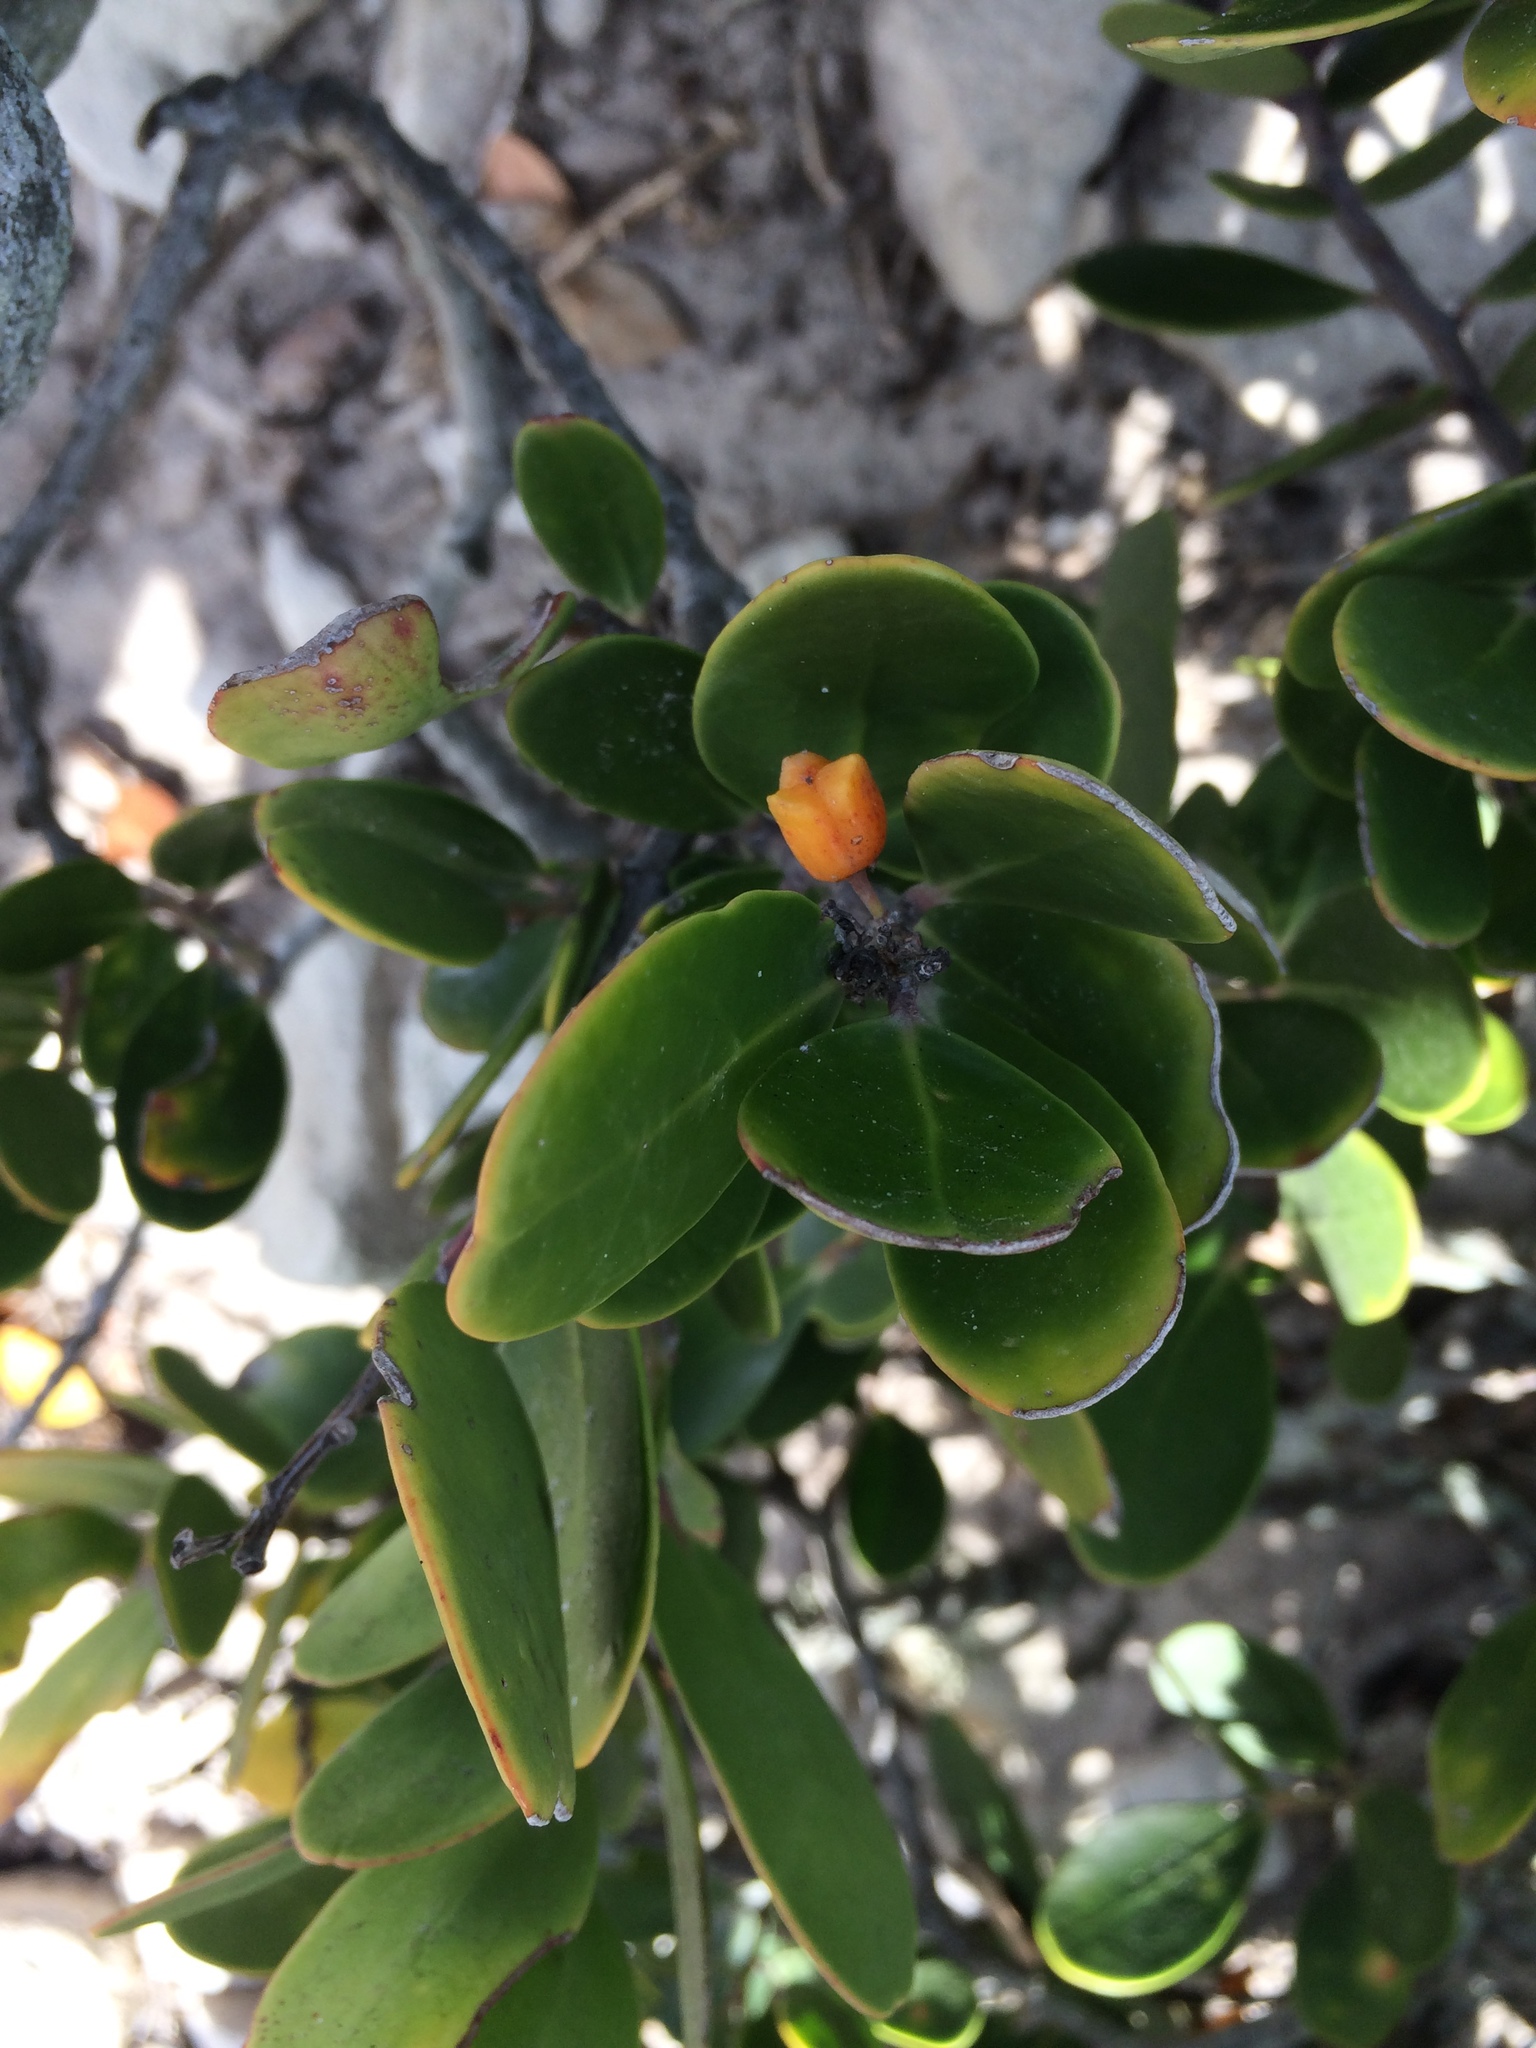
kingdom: Plantae
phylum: Tracheophyta
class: Magnoliopsida
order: Celastrales
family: Celastraceae
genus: Pterocelastrus
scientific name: Pterocelastrus tricuspidatus
